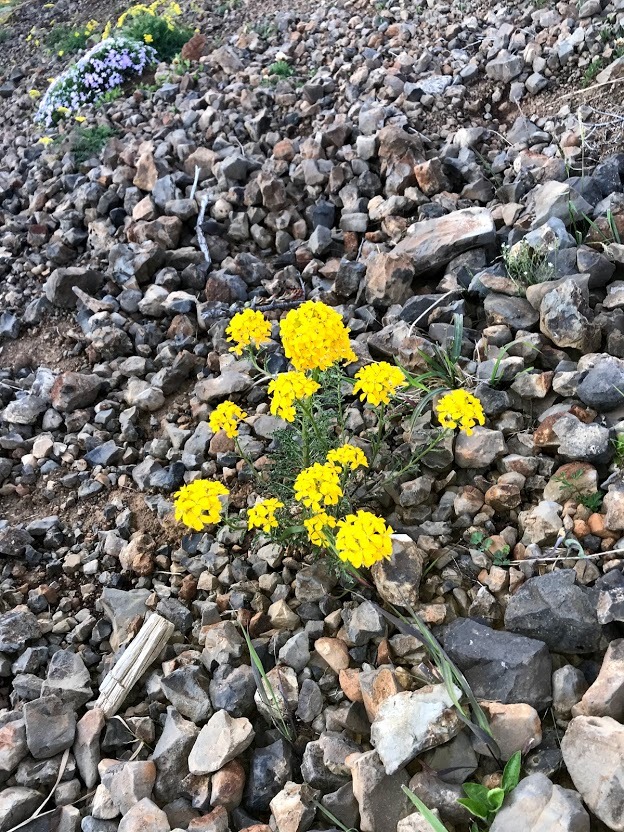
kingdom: Plantae
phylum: Tracheophyta
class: Magnoliopsida
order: Brassicales
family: Brassicaceae
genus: Erysimum
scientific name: Erysimum asperum
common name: Western wallflower
